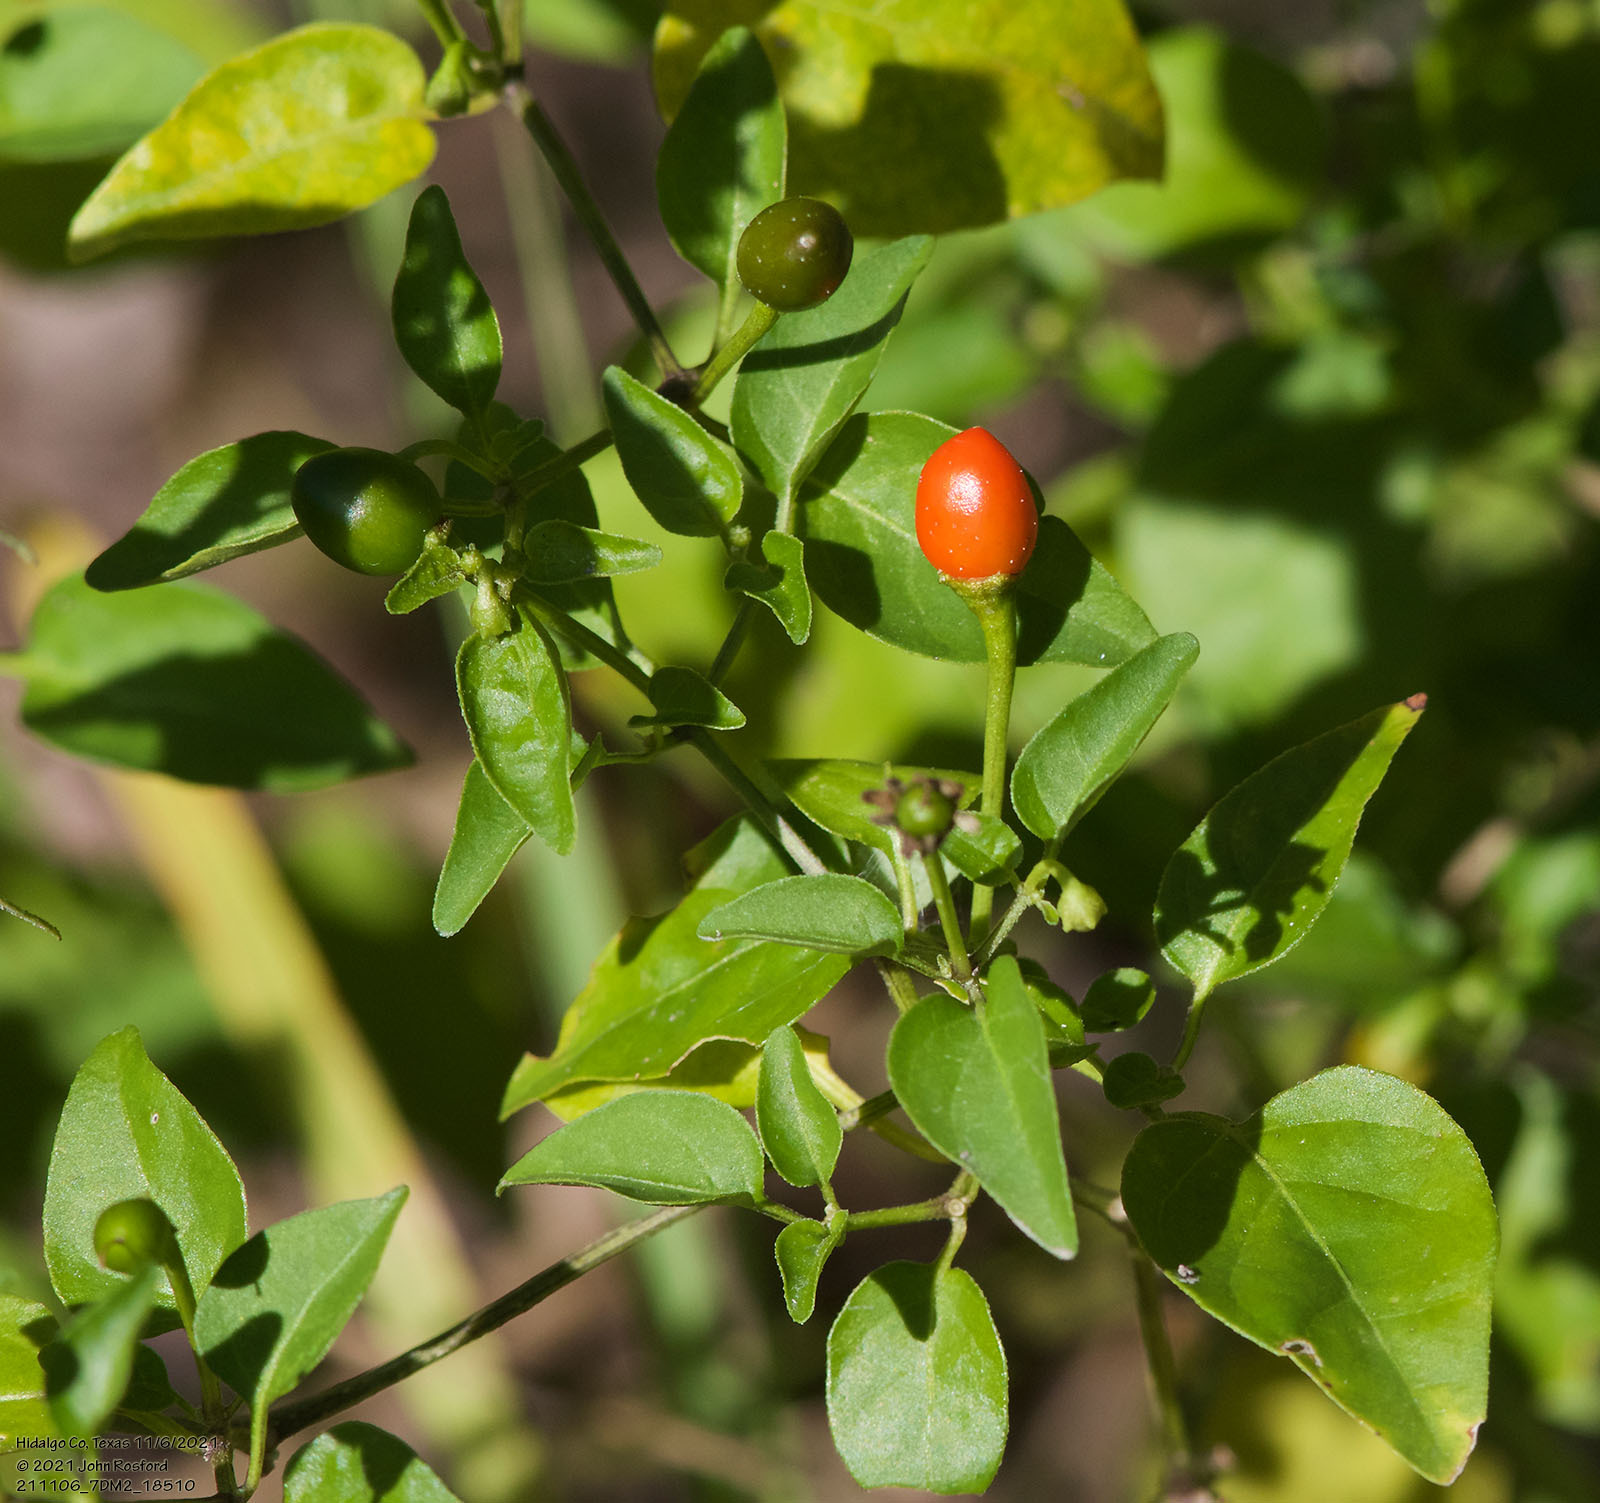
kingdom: Plantae
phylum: Tracheophyta
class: Magnoliopsida
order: Solanales
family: Solanaceae
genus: Capsicum
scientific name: Capsicum annuum
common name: Sweet pepper
